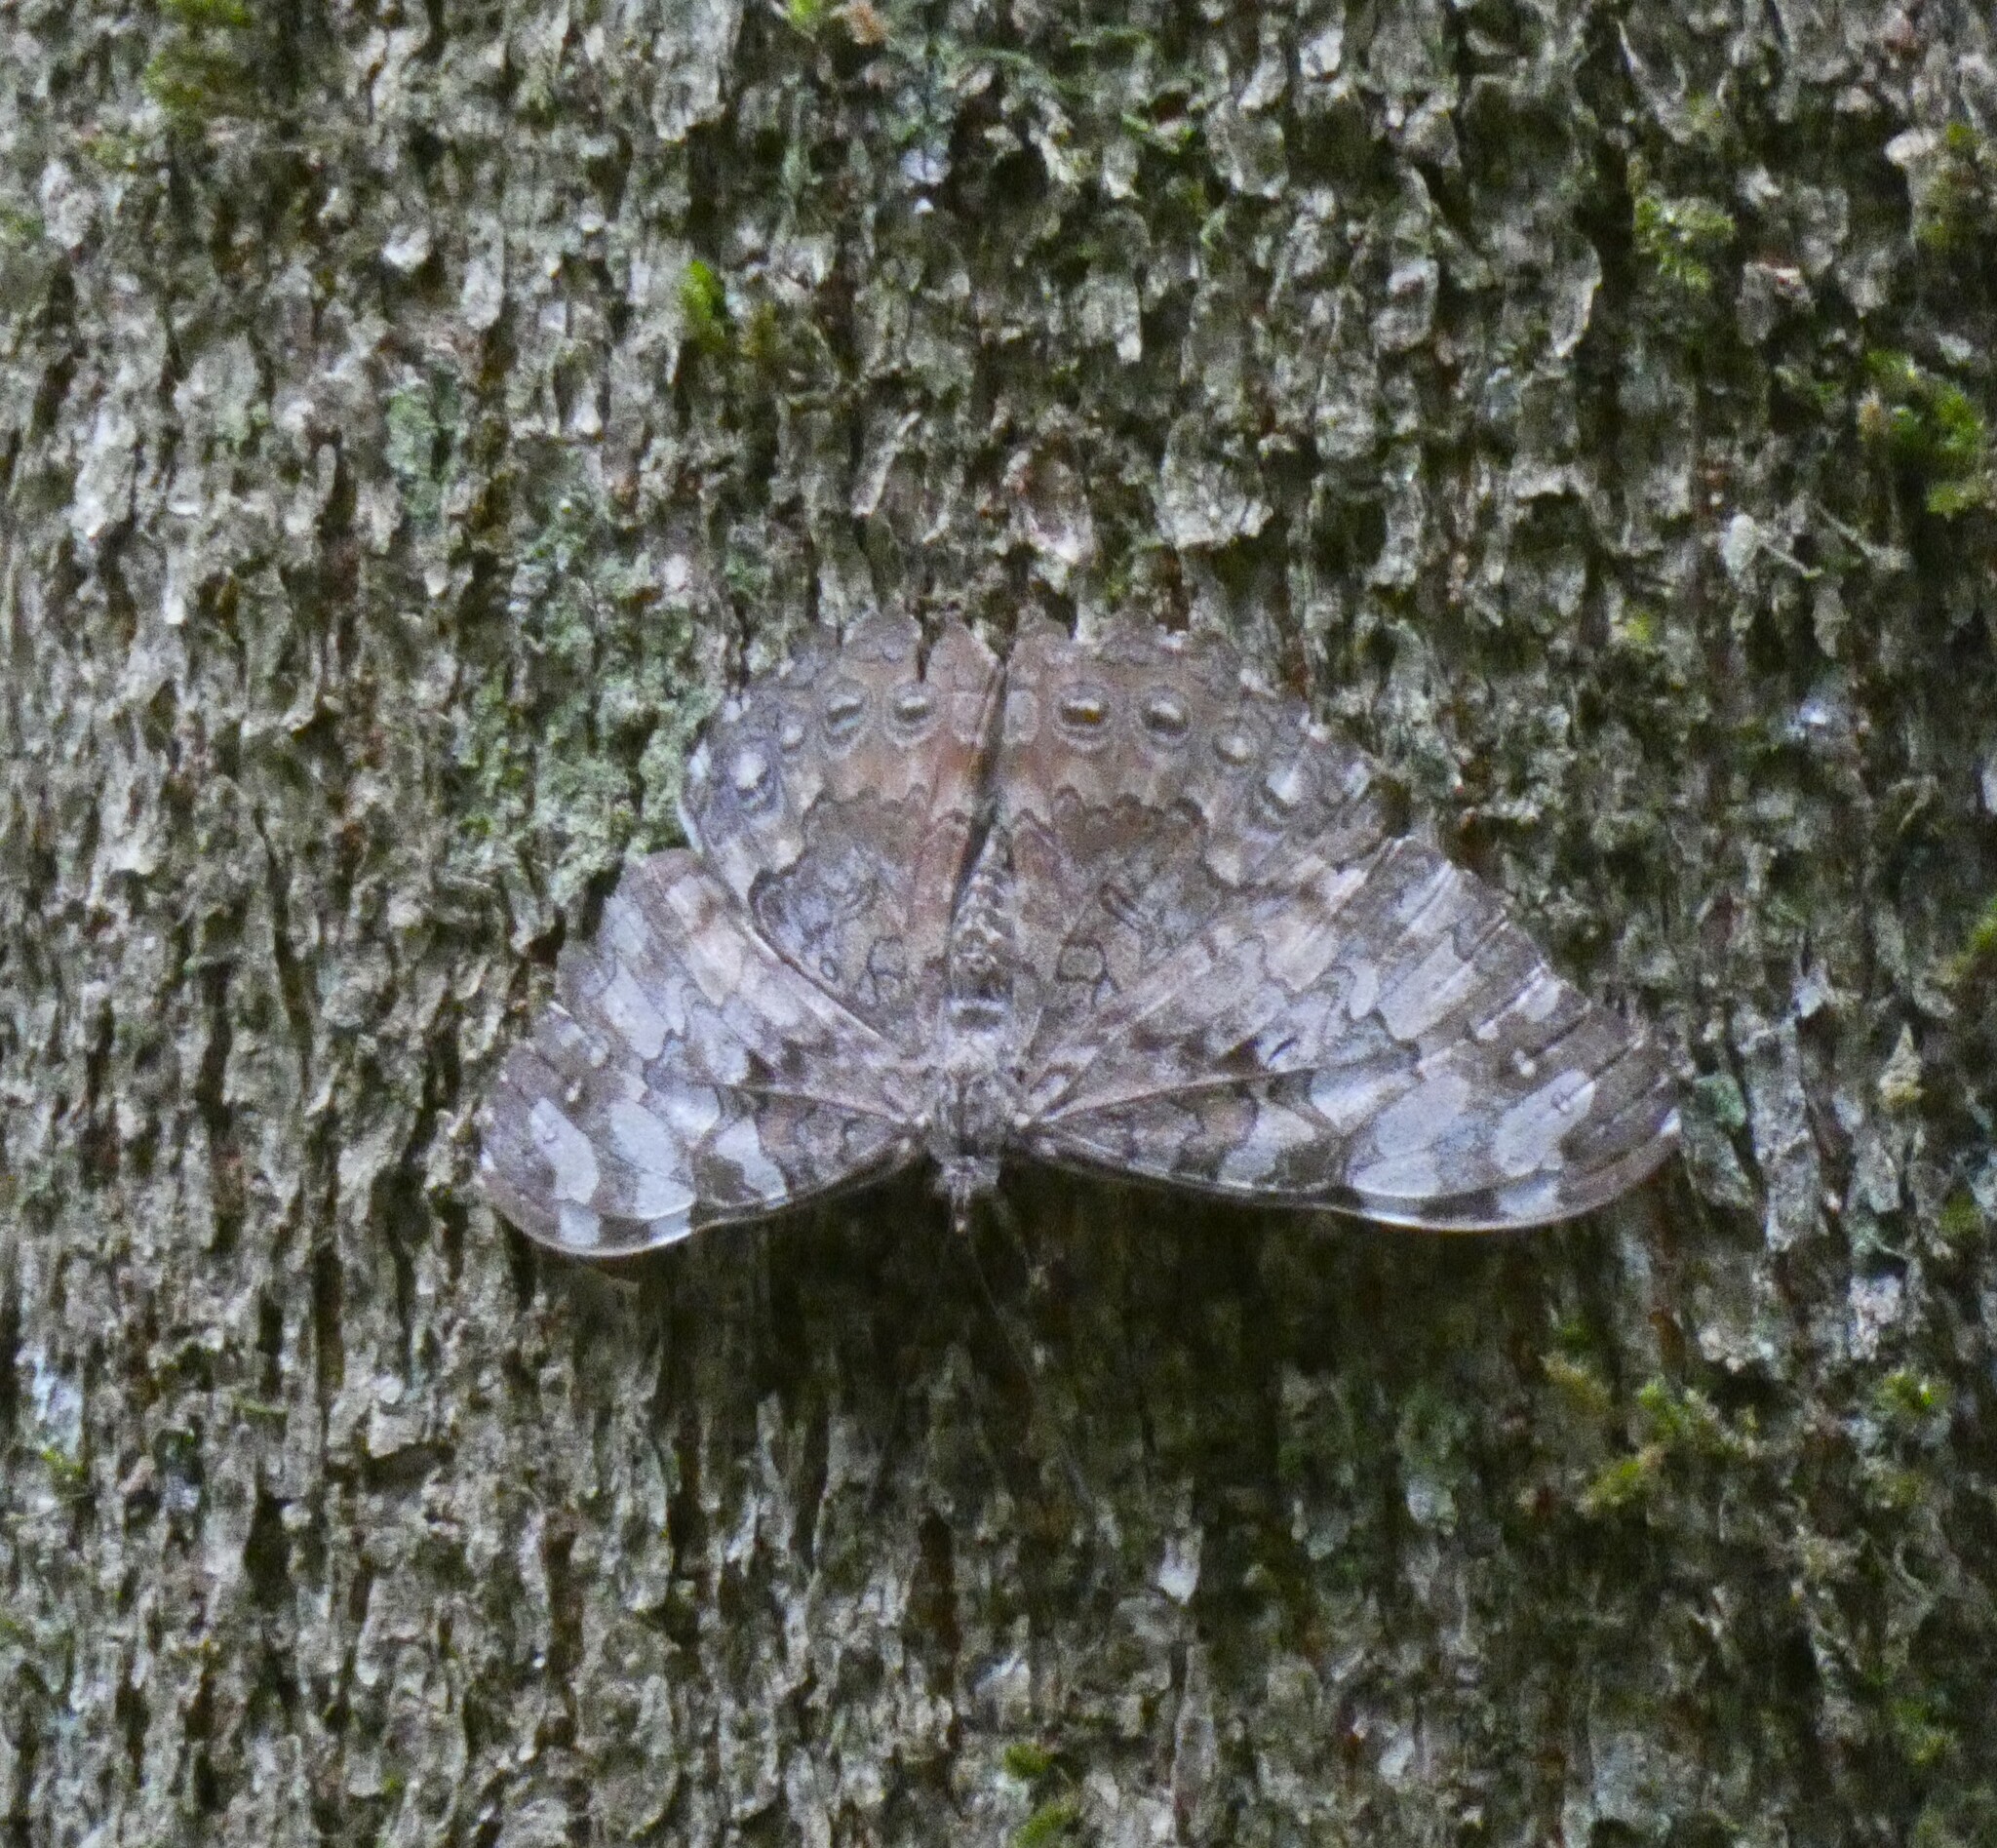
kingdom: Animalia
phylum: Arthropoda
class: Insecta
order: Lepidoptera
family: Nymphalidae
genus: Hamadryas
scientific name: Hamadryas epinome
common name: Epinome cracker
